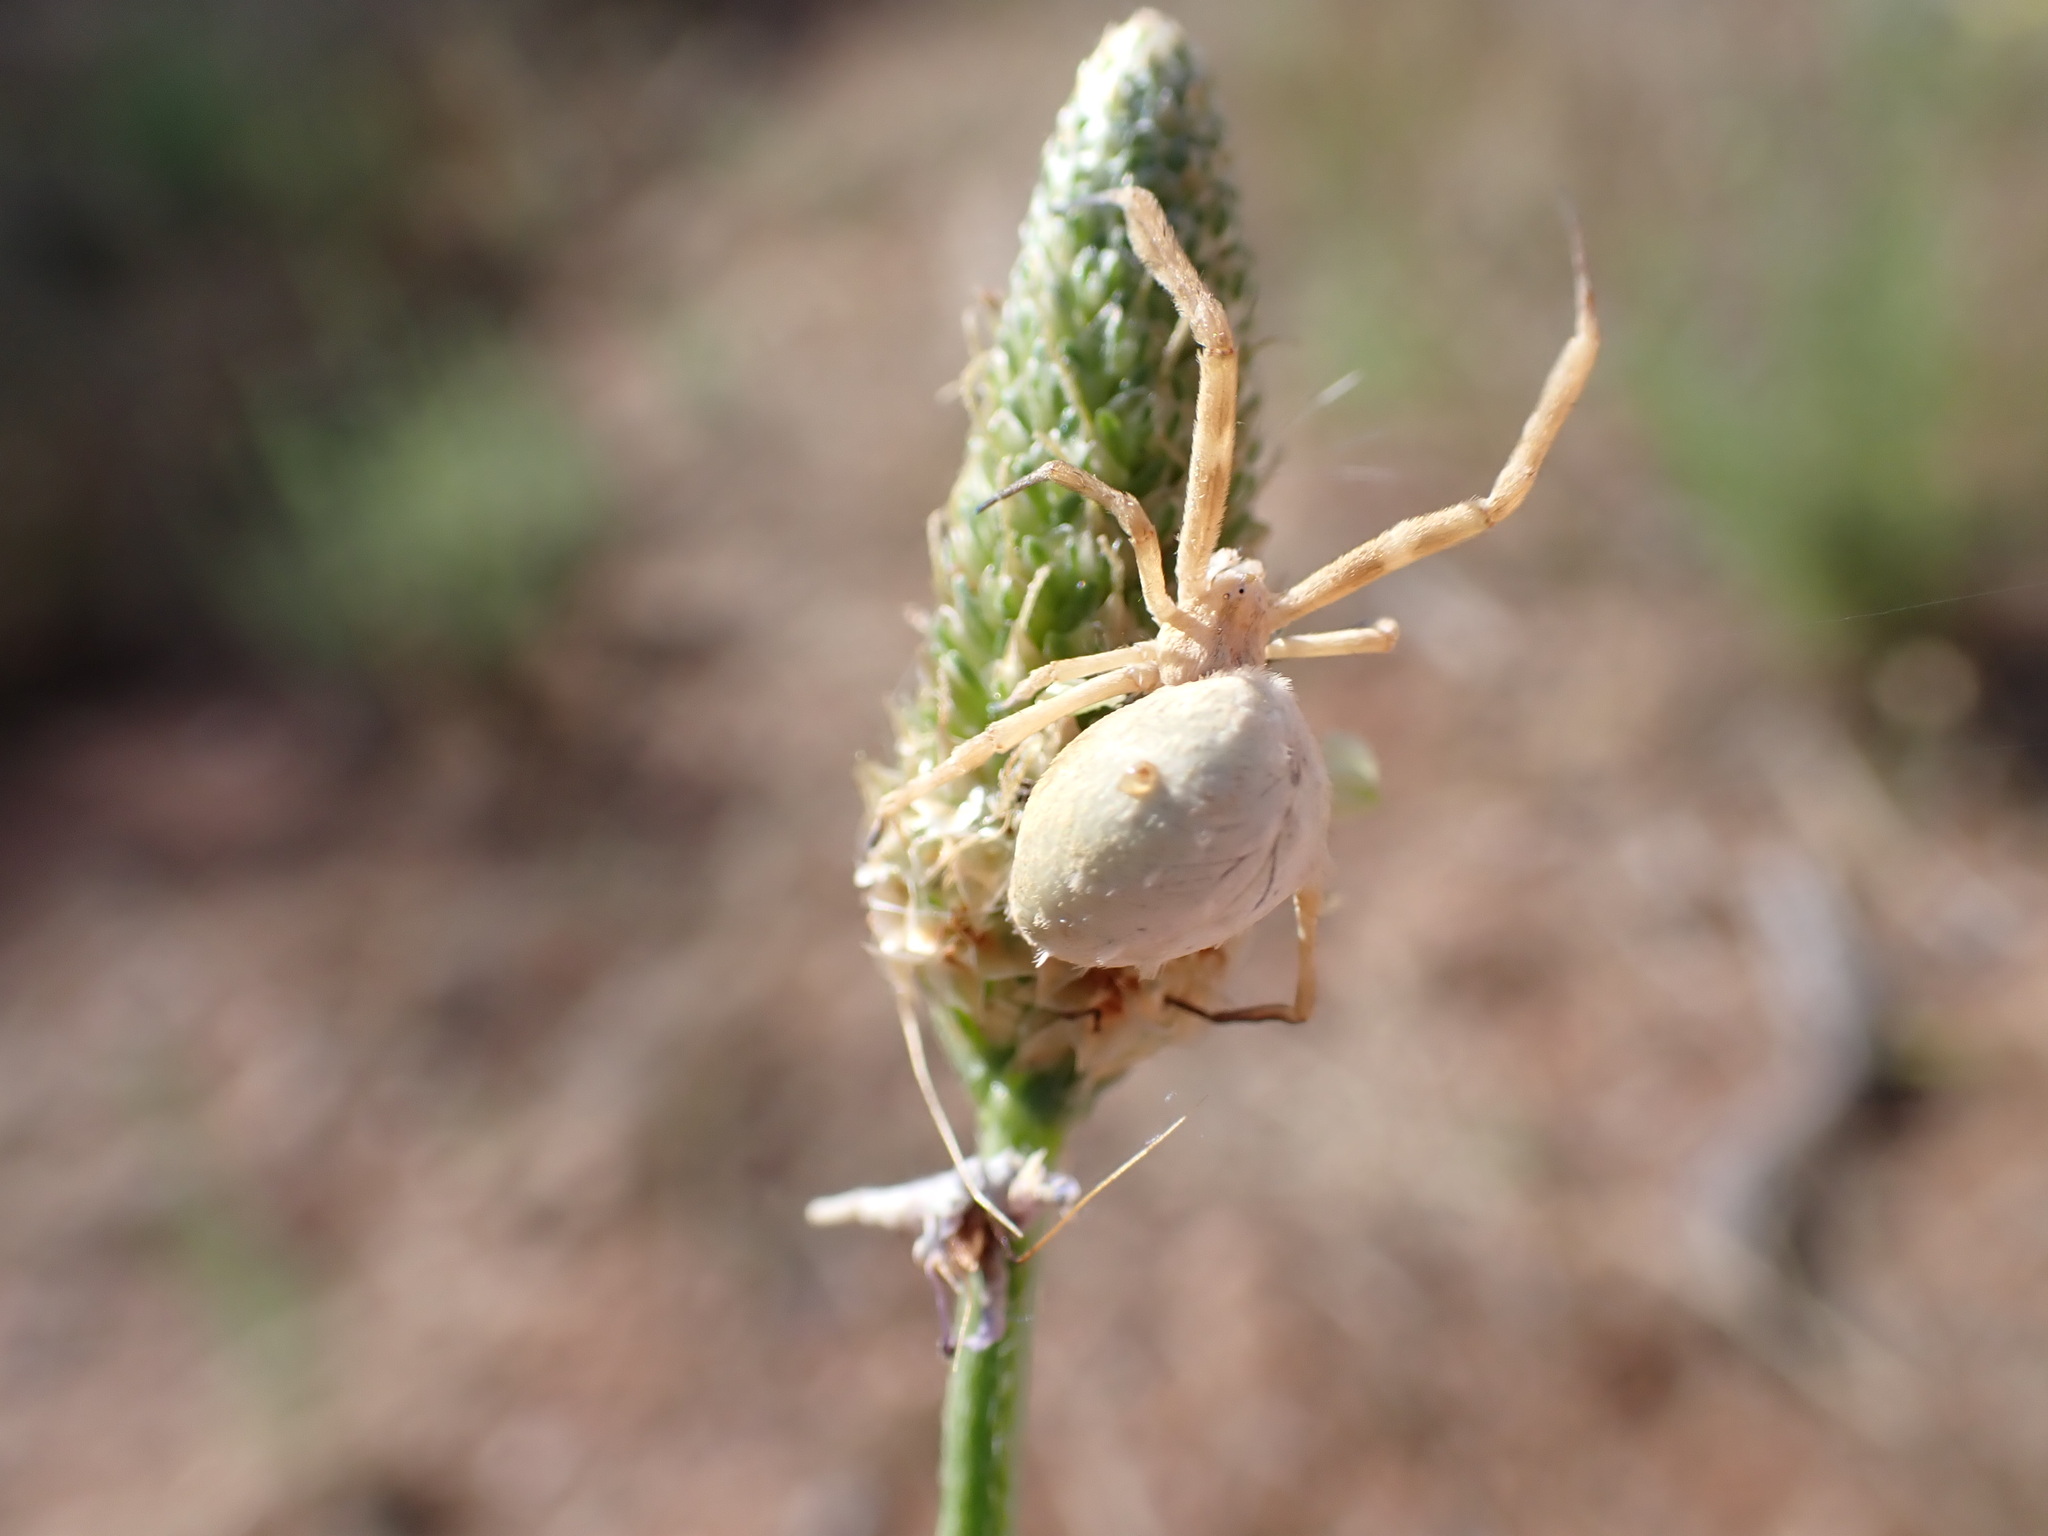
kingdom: Animalia
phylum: Arthropoda
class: Arachnida
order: Araneae
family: Uloboridae
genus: Uloborus
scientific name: Uloborus walckenaerius
